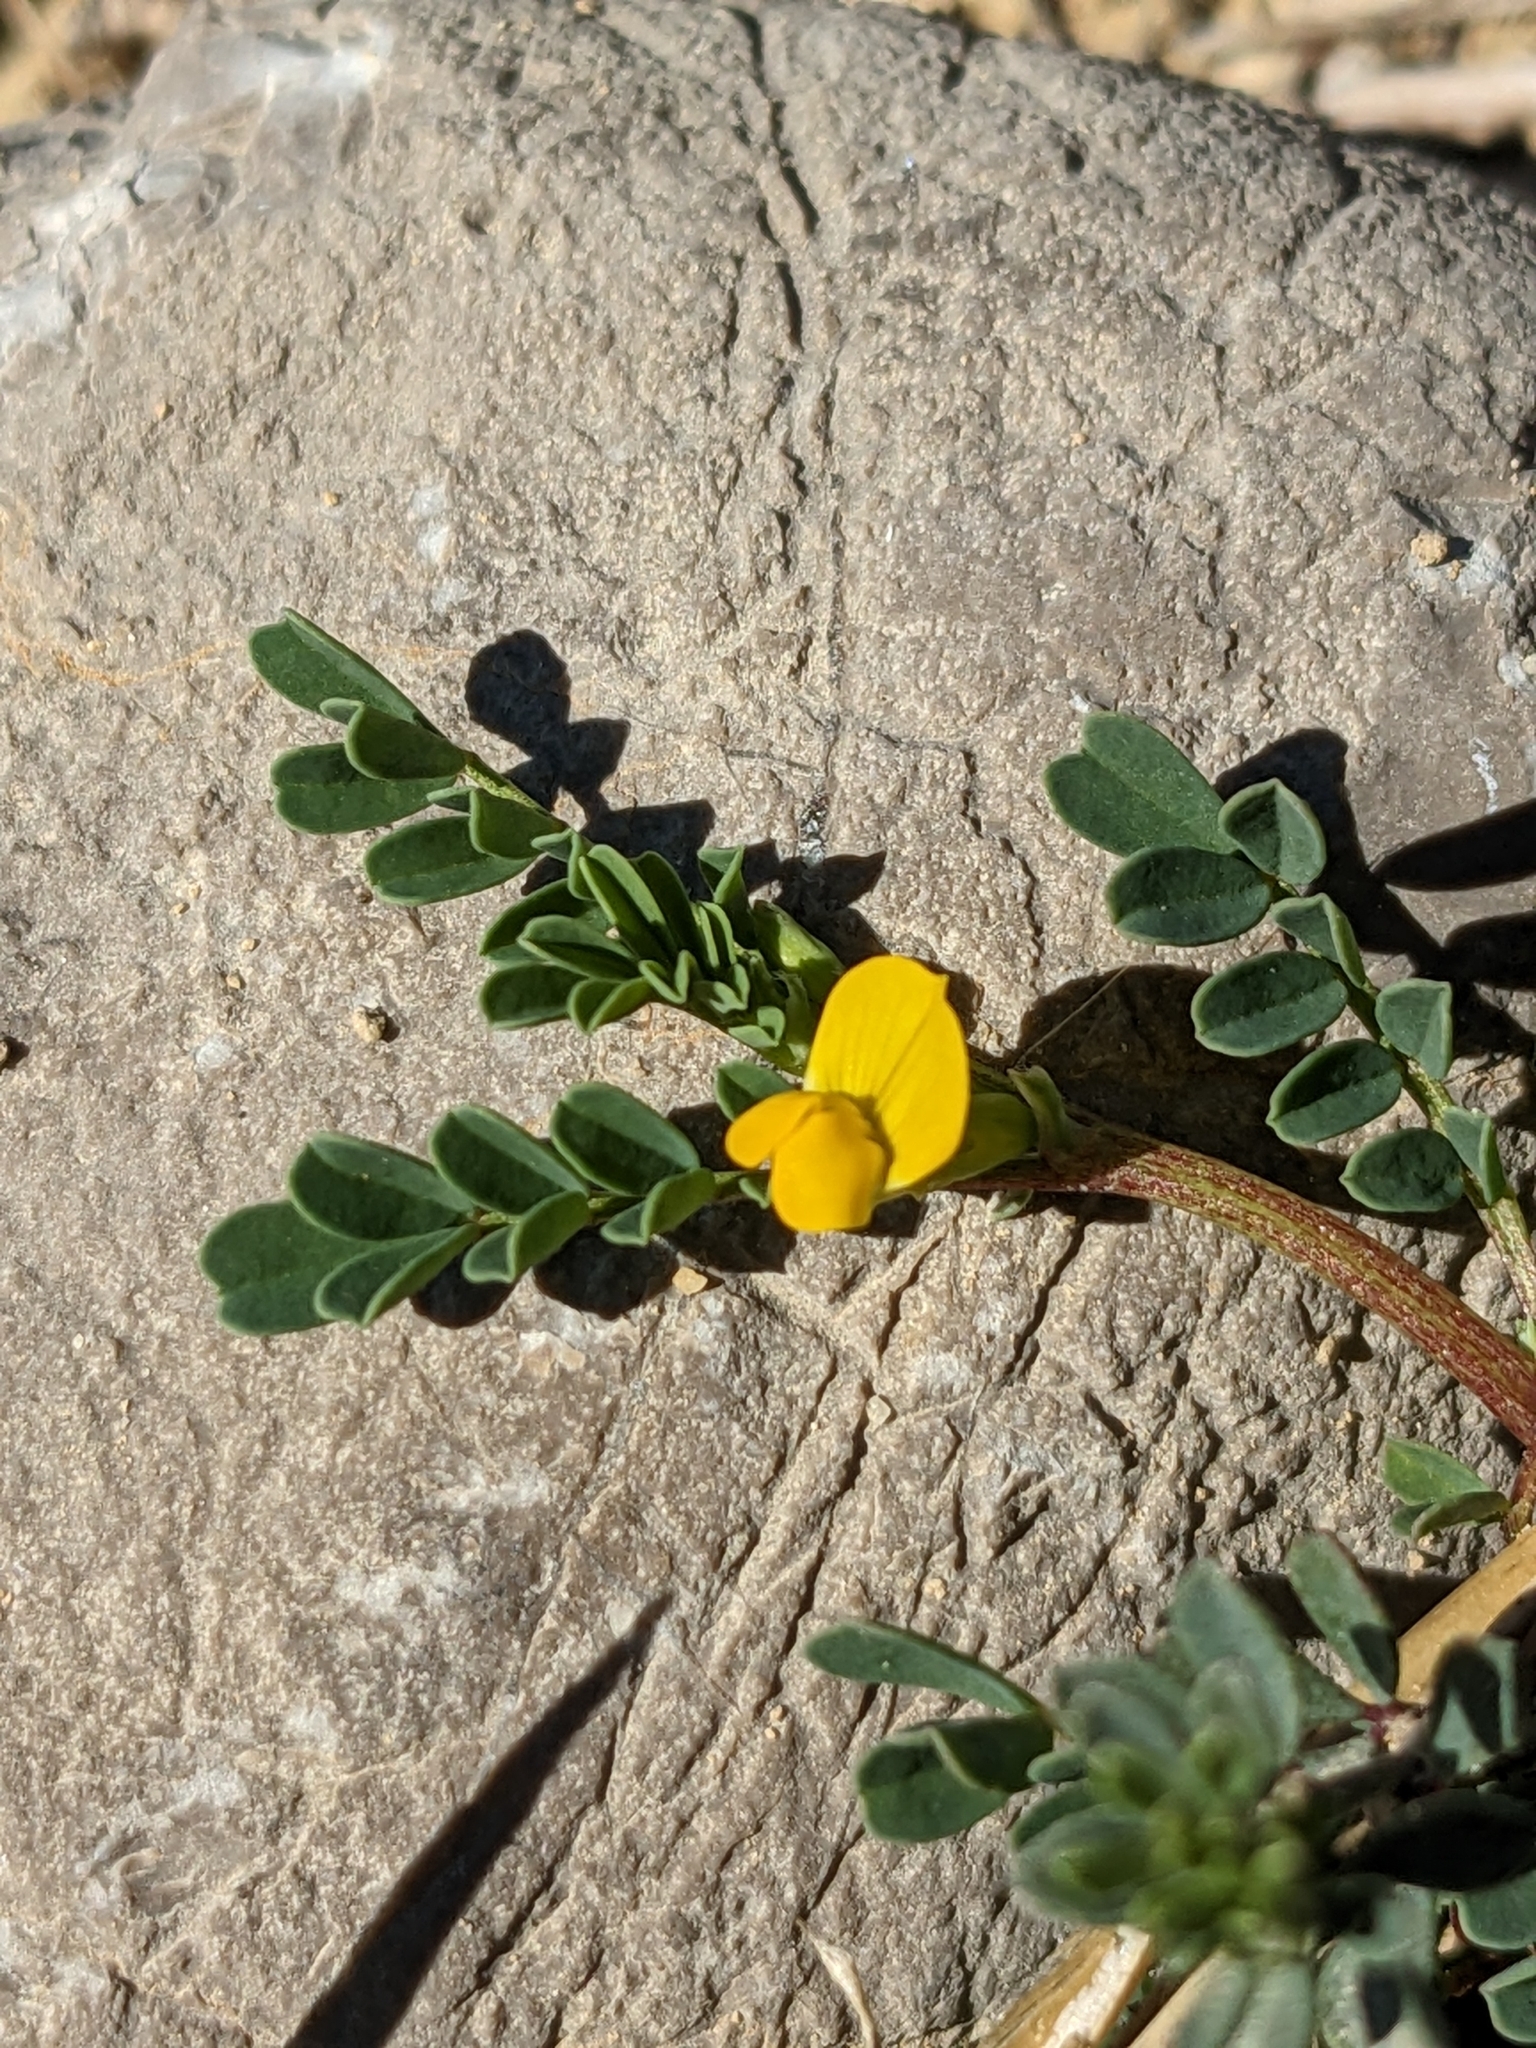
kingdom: Plantae
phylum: Tracheophyta
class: Magnoliopsida
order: Fabales
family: Fabaceae
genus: Hippocrepis
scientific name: Hippocrepis biflora
